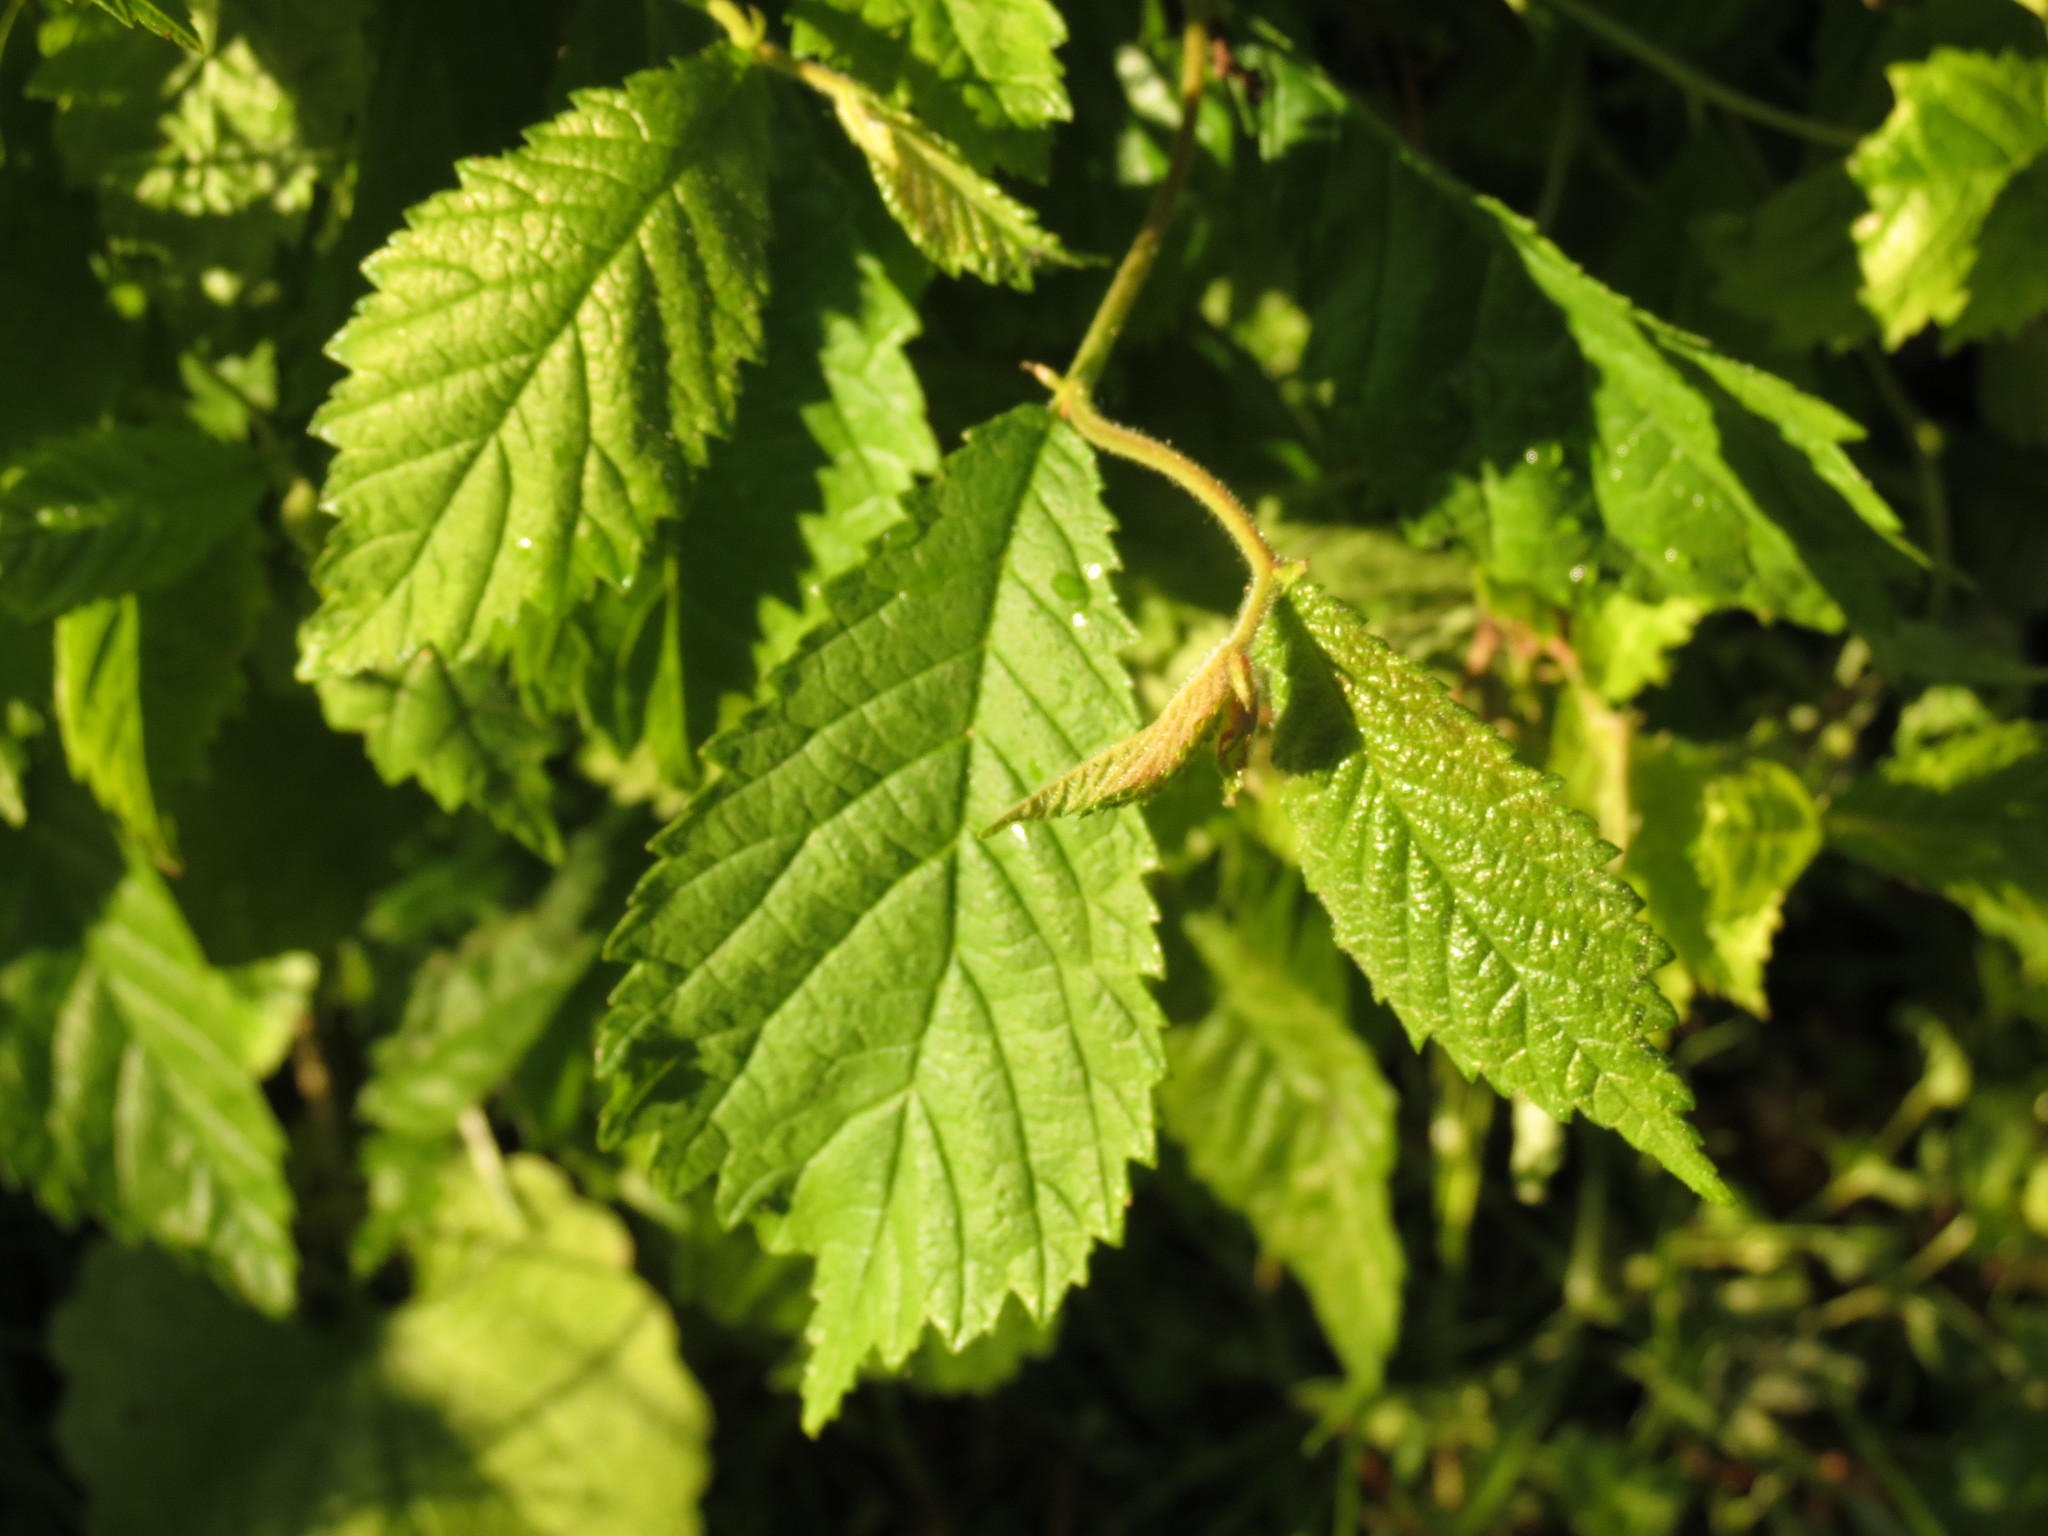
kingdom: Plantae
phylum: Tracheophyta
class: Magnoliopsida
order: Rosales
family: Ulmaceae
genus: Ulmus
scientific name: Ulmus glabra
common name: Wych elm
